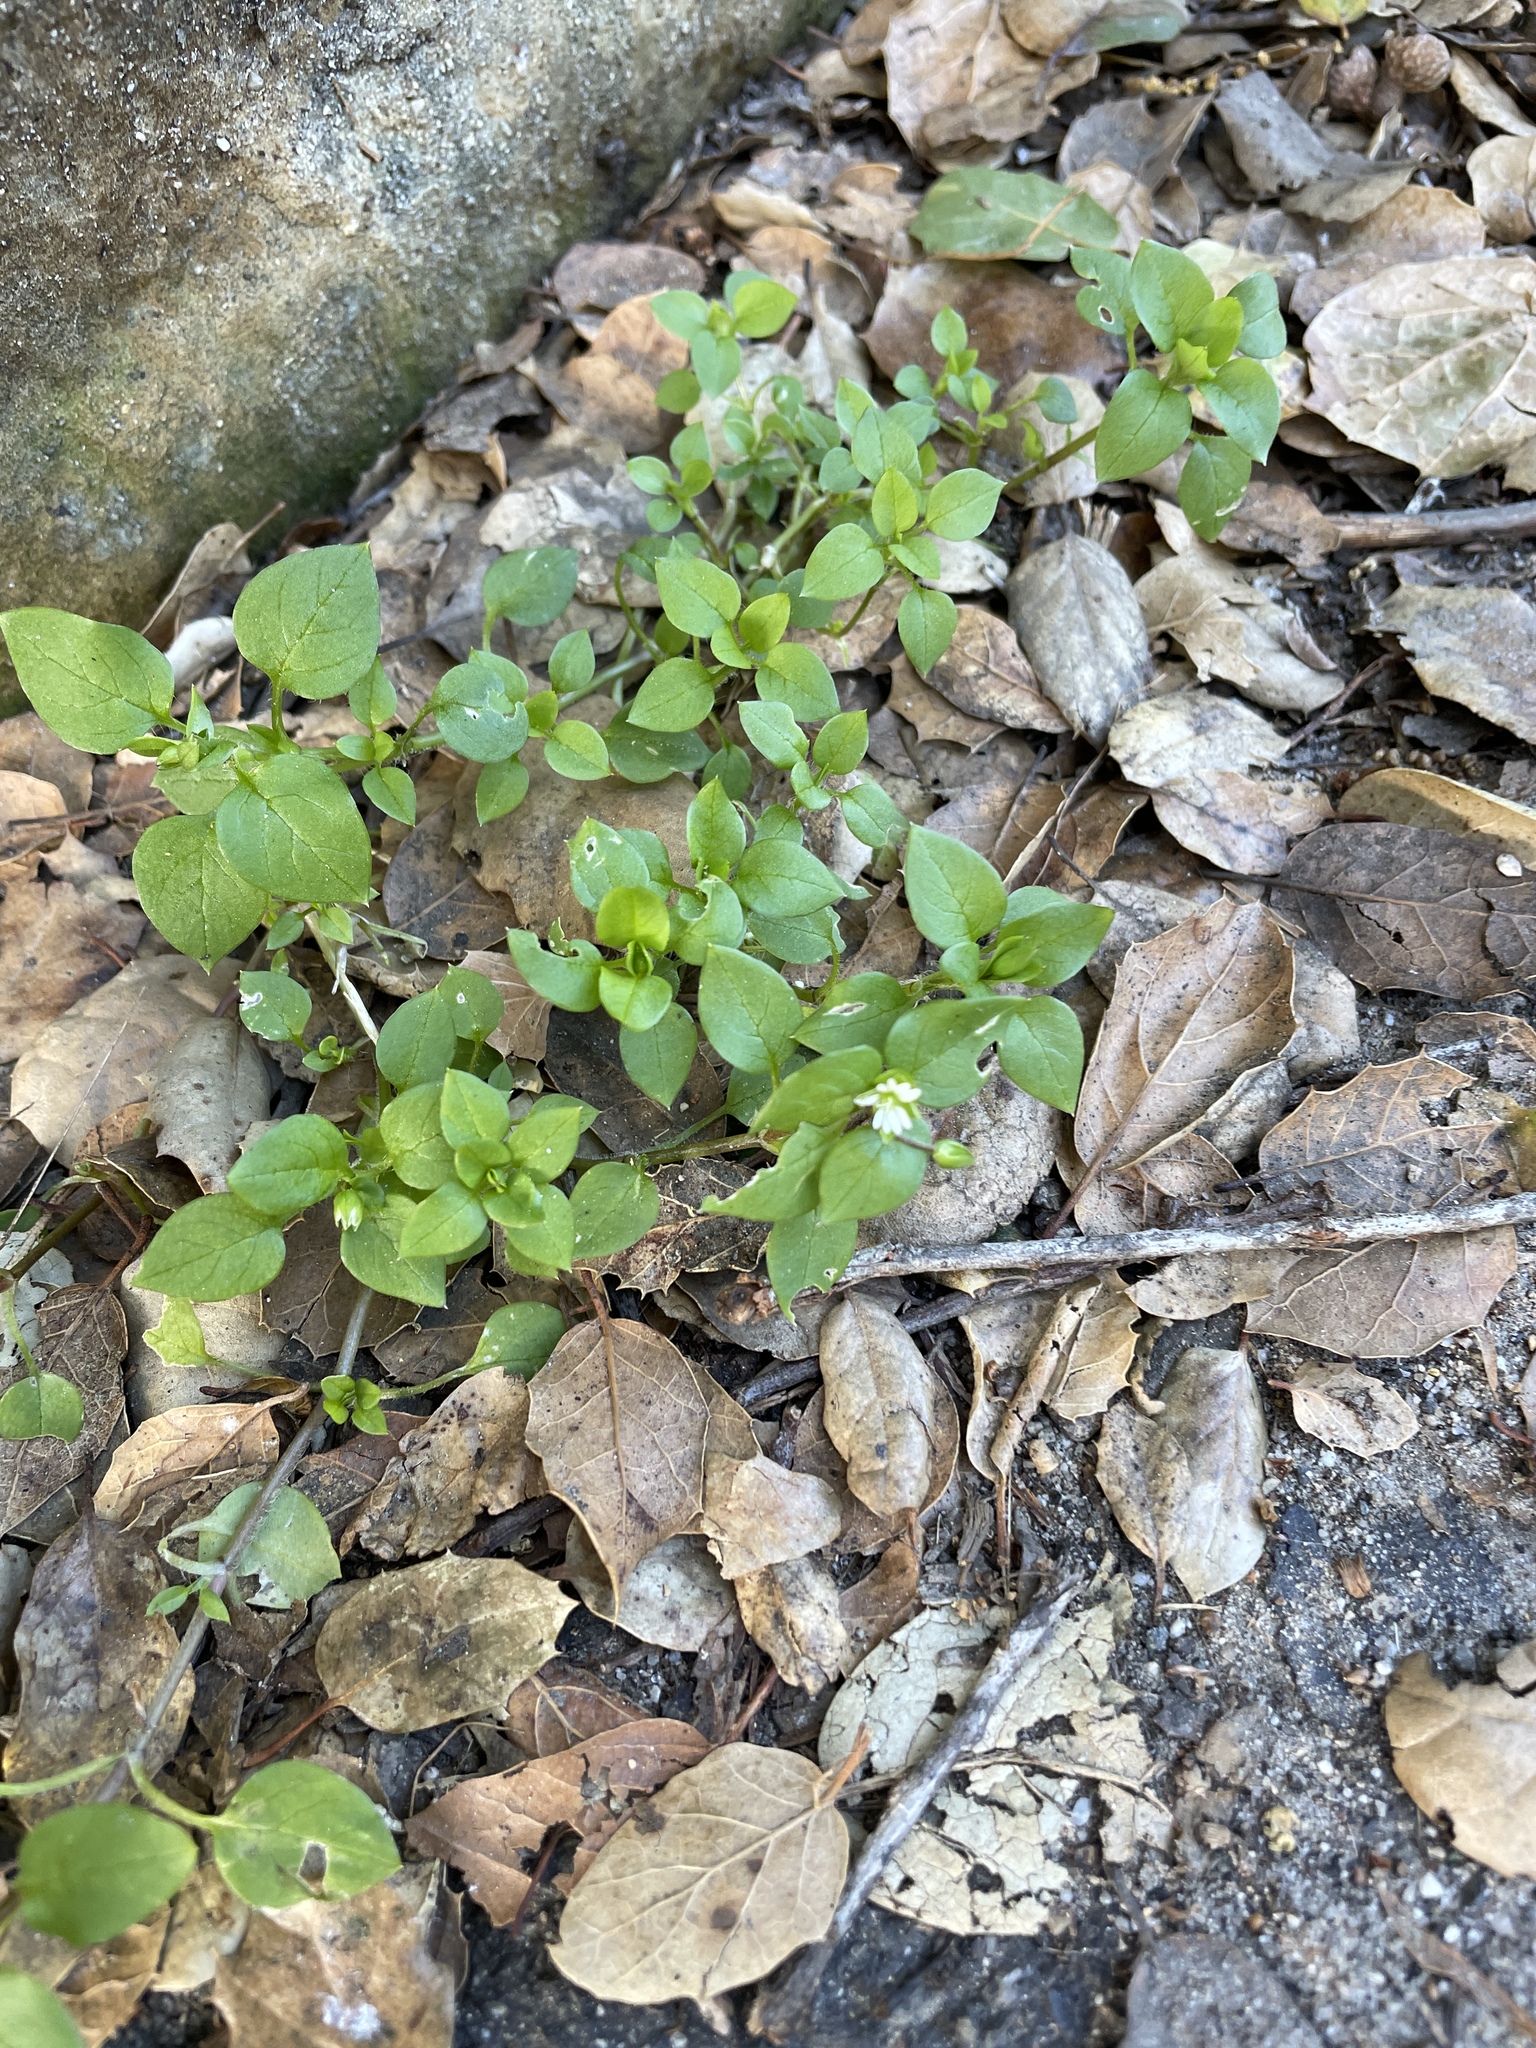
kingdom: Plantae
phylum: Tracheophyta
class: Magnoliopsida
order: Caryophyllales
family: Caryophyllaceae
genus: Stellaria
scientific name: Stellaria media
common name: Common chickweed
